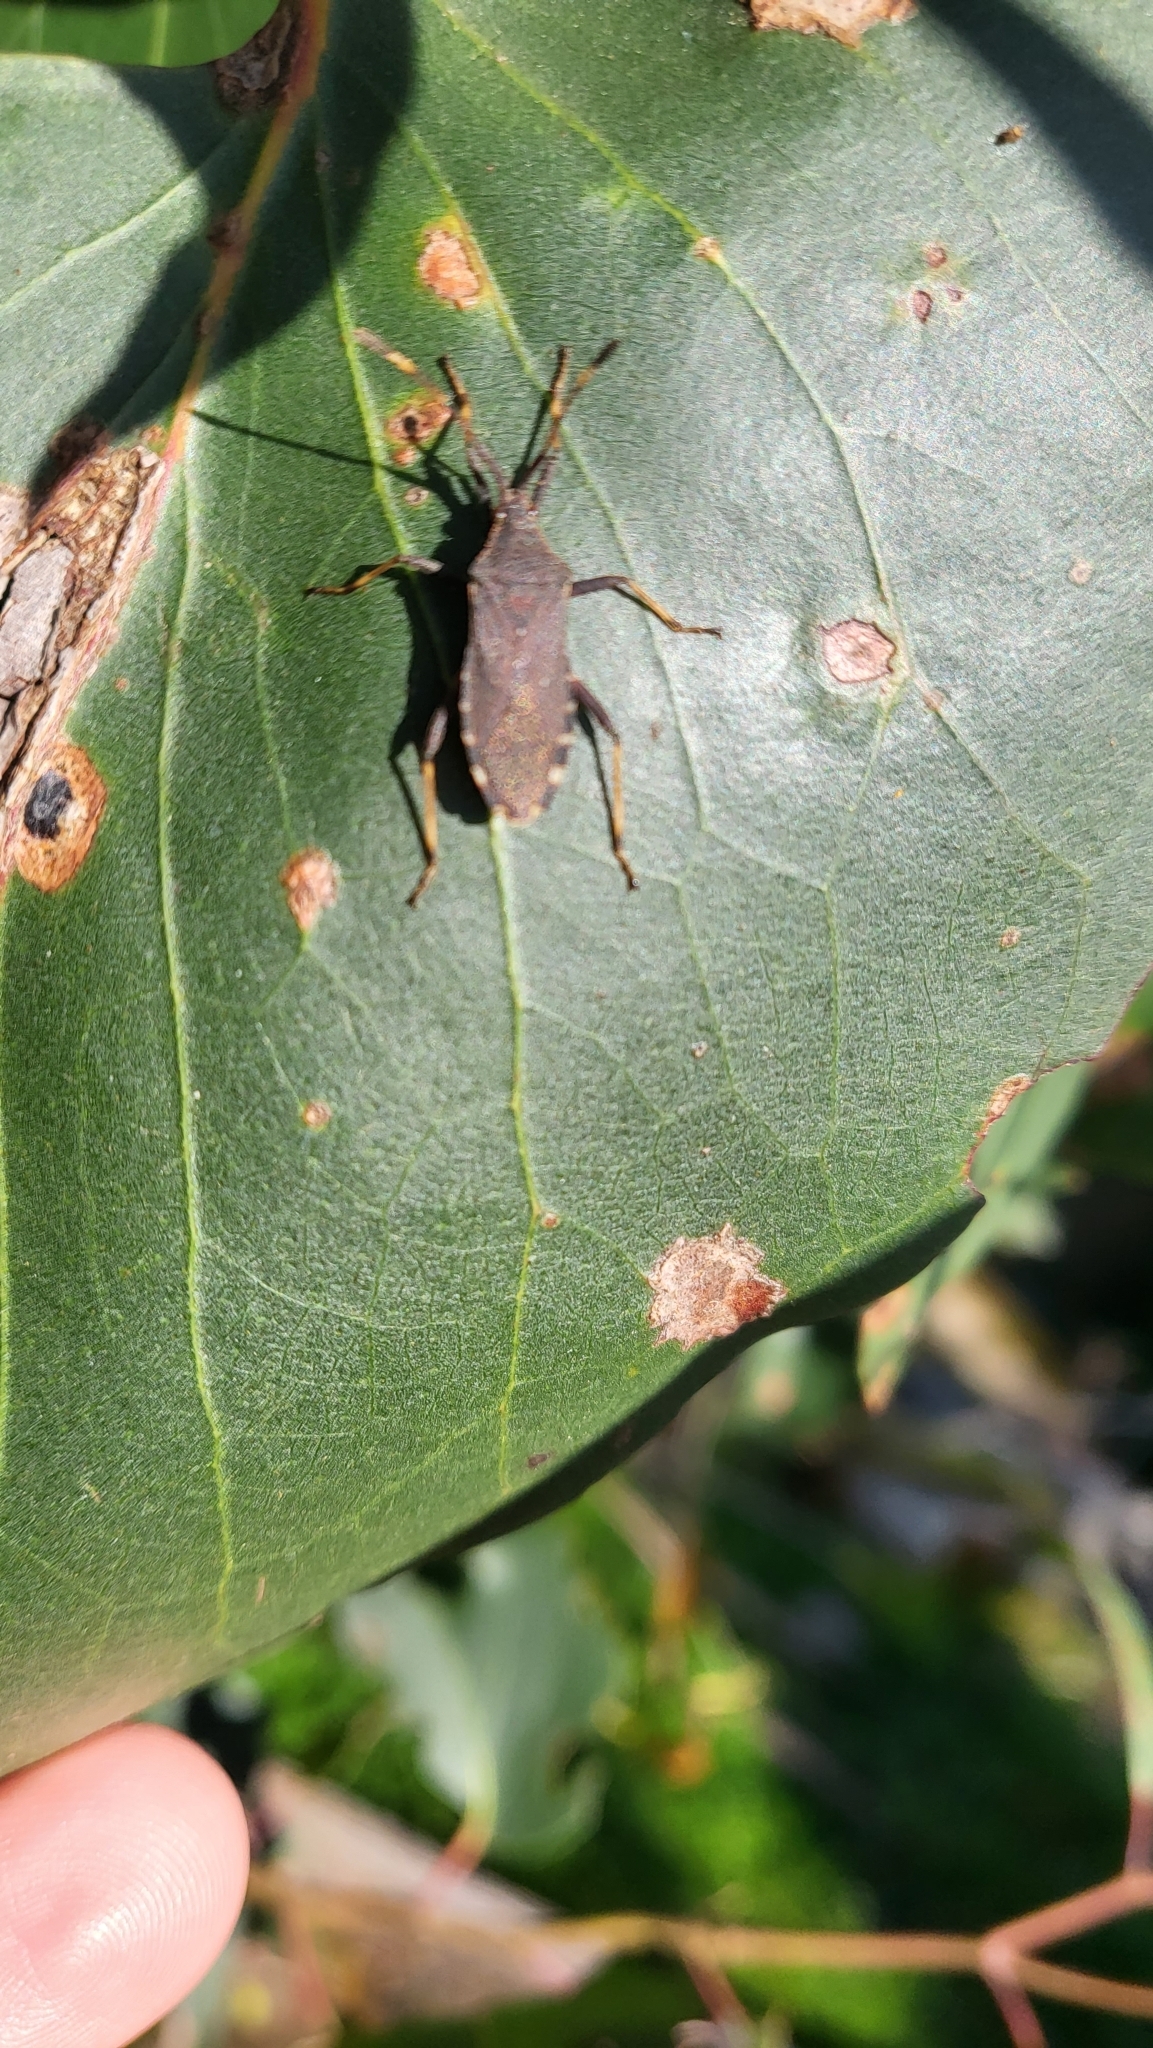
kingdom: Animalia
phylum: Arthropoda
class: Insecta
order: Hemiptera
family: Coreidae
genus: Gelonus
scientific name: Gelonus tasmanicus
